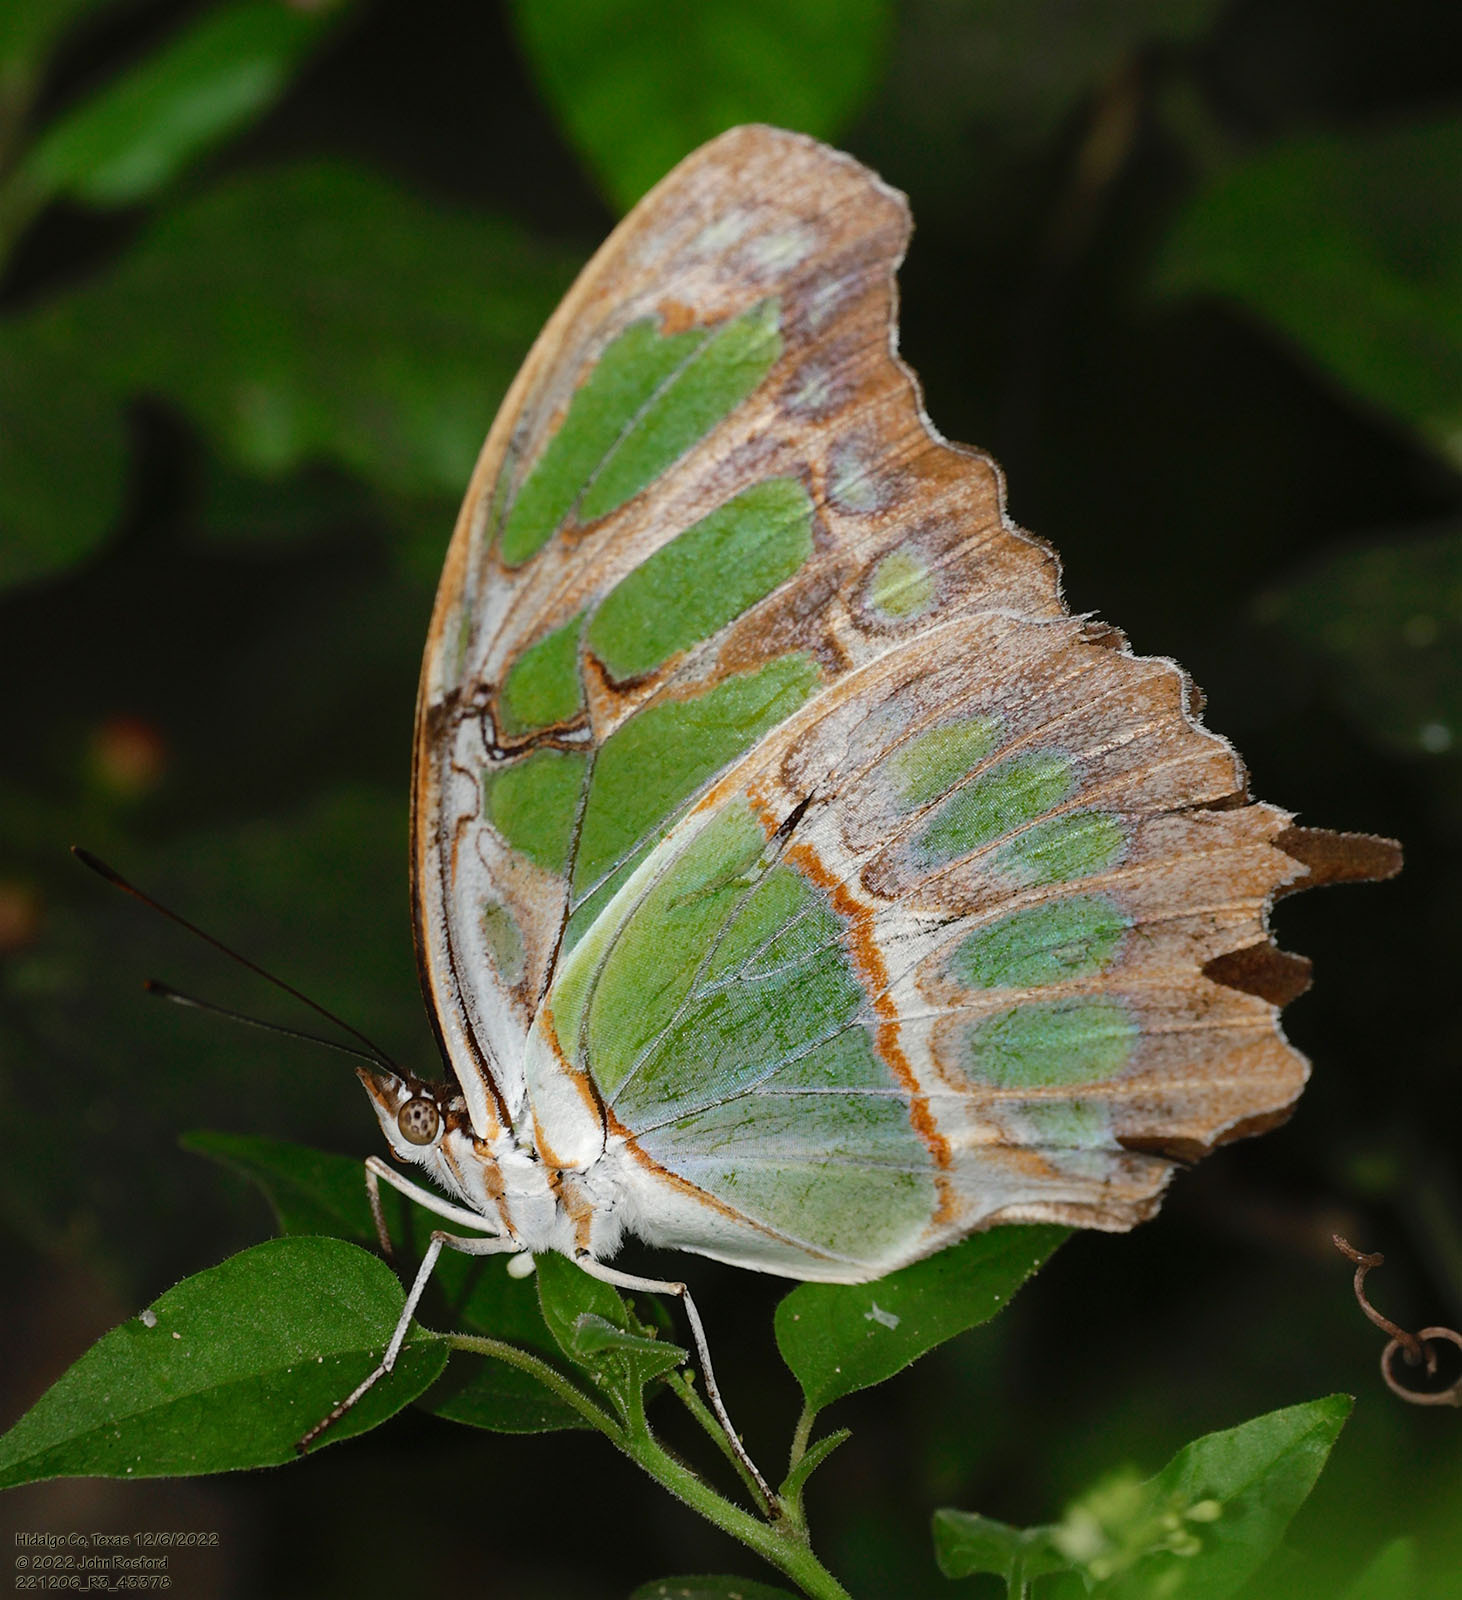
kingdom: Animalia
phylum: Arthropoda
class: Insecta
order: Lepidoptera
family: Nymphalidae
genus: Siproeta
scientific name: Siproeta stelenes
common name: Malachite
